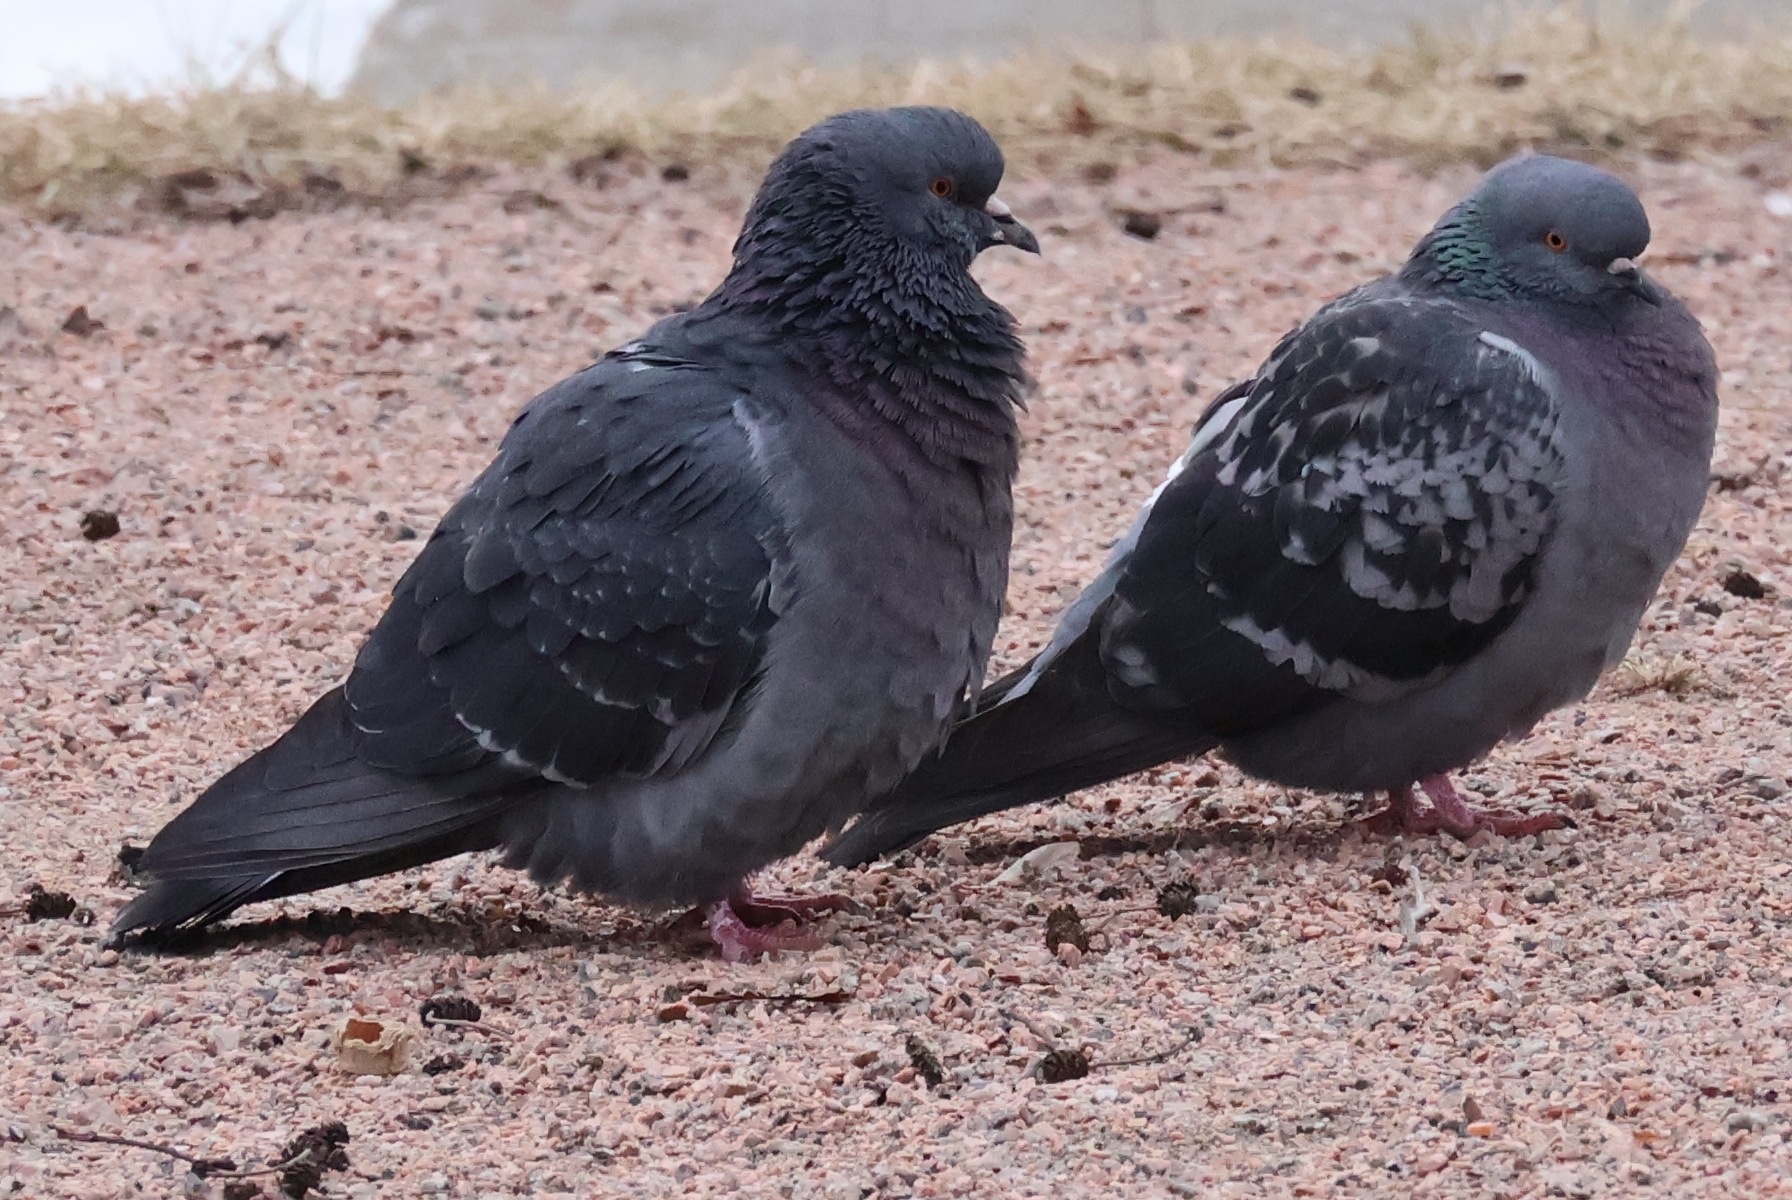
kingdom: Animalia
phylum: Chordata
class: Aves
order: Columbiformes
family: Columbidae
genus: Columba
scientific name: Columba livia
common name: Rock pigeon
